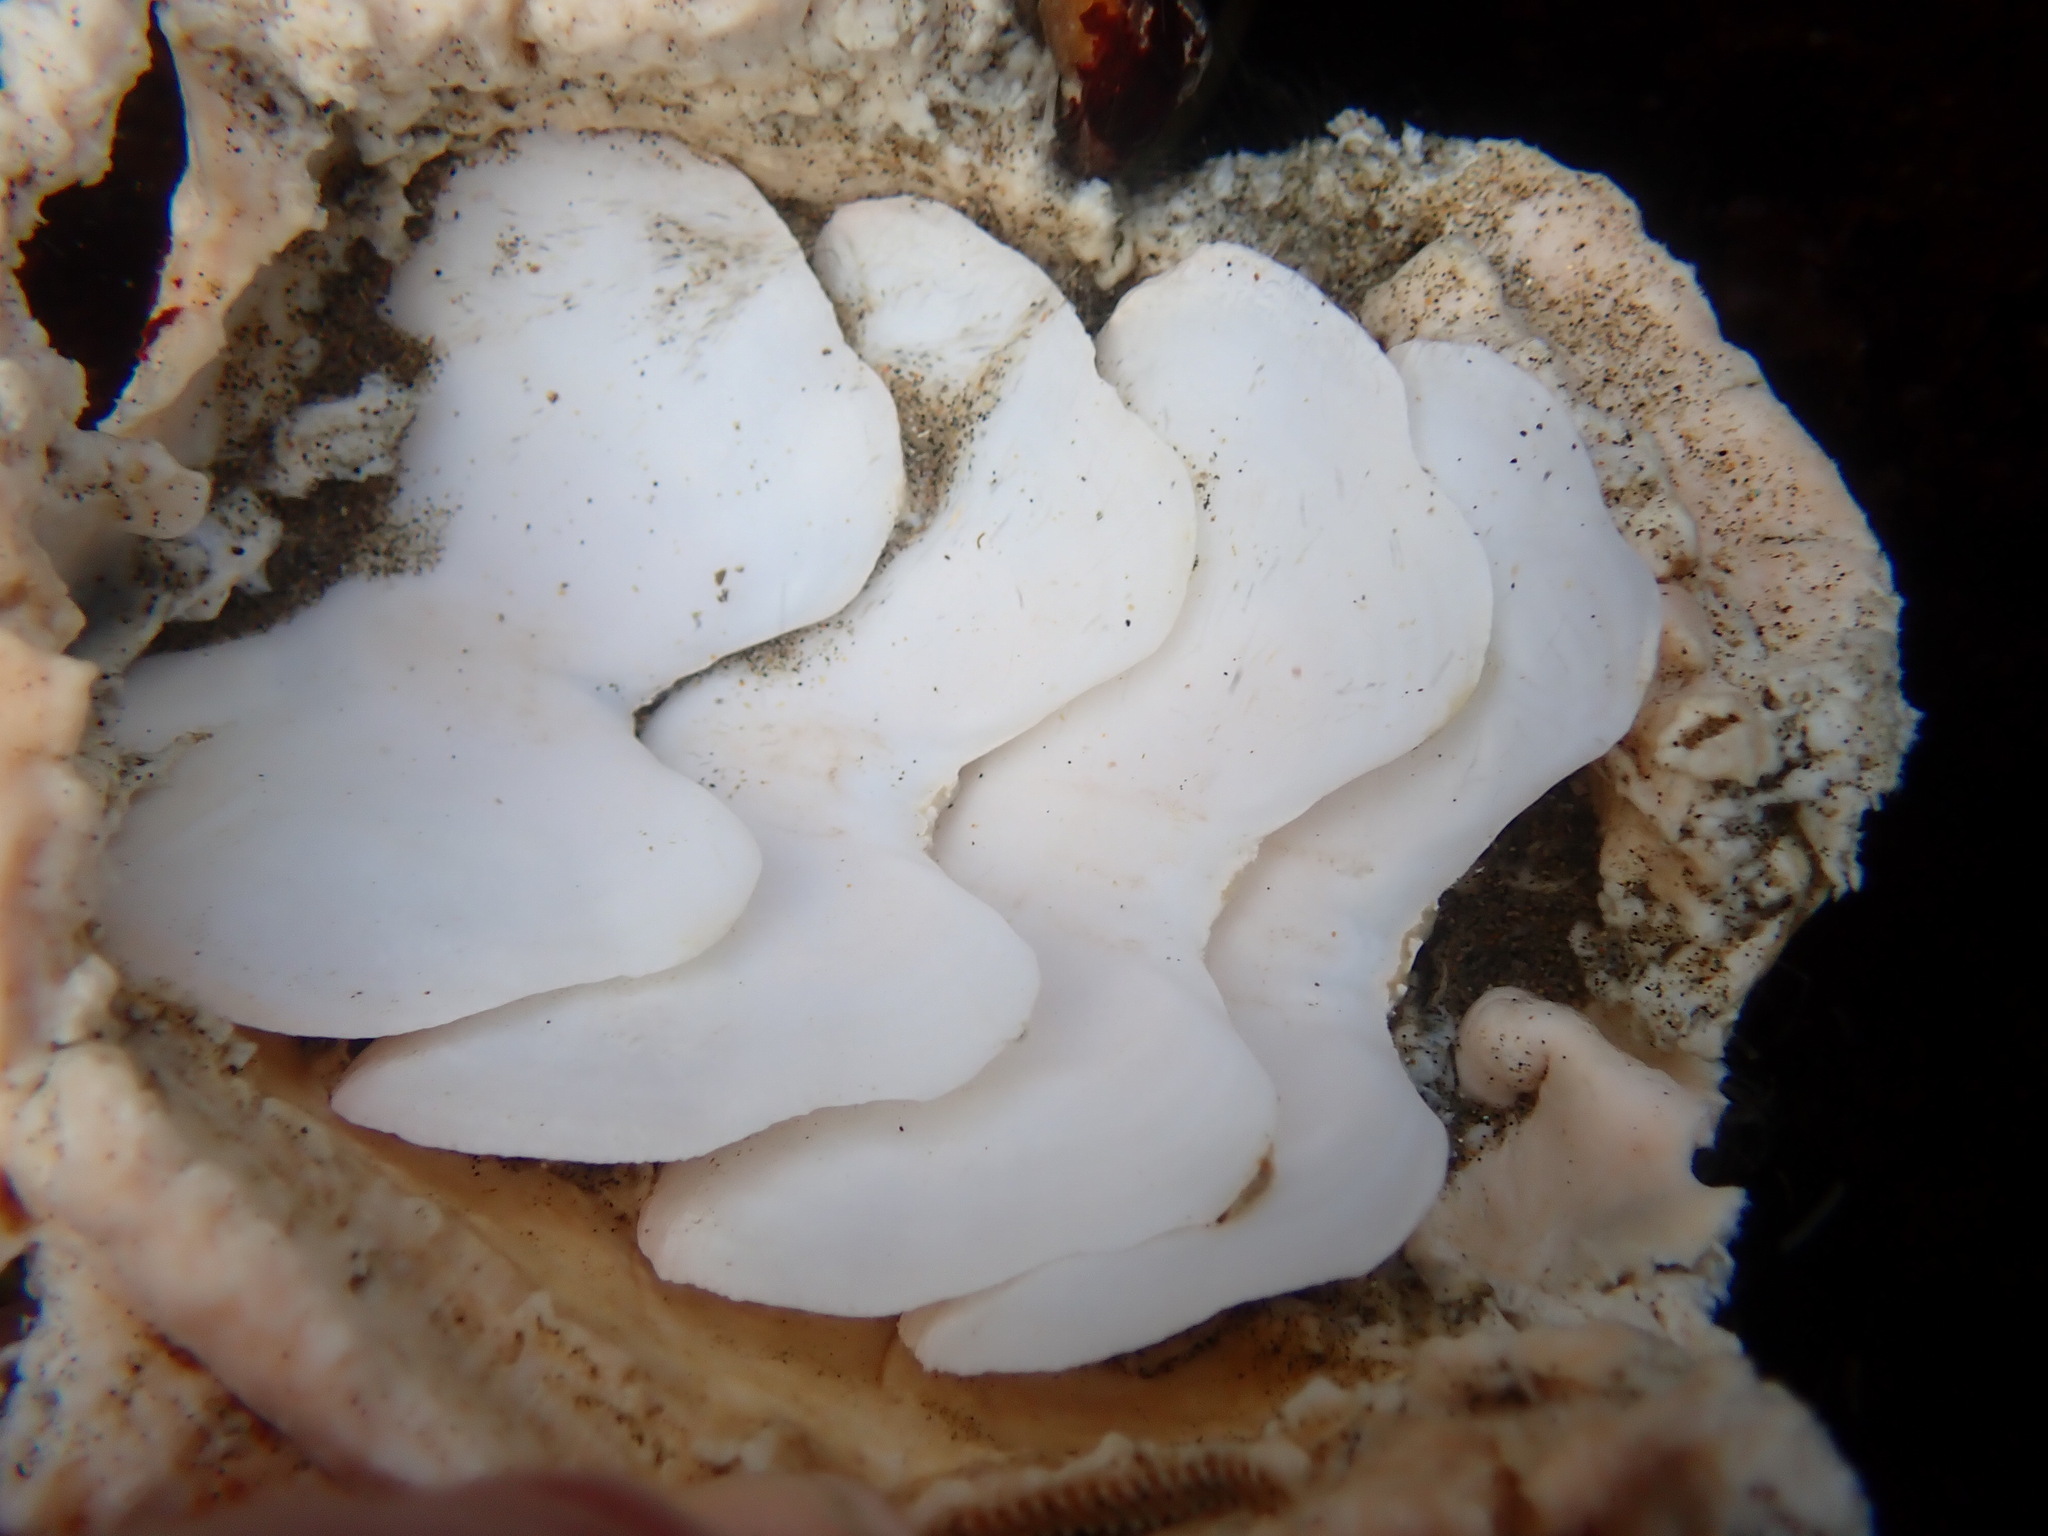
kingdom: Animalia
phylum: Mollusca
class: Polyplacophora
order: Chitonida
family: Acanthochitonidae
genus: Cryptochiton
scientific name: Cryptochiton stelleri
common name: Giant pacific chiton
